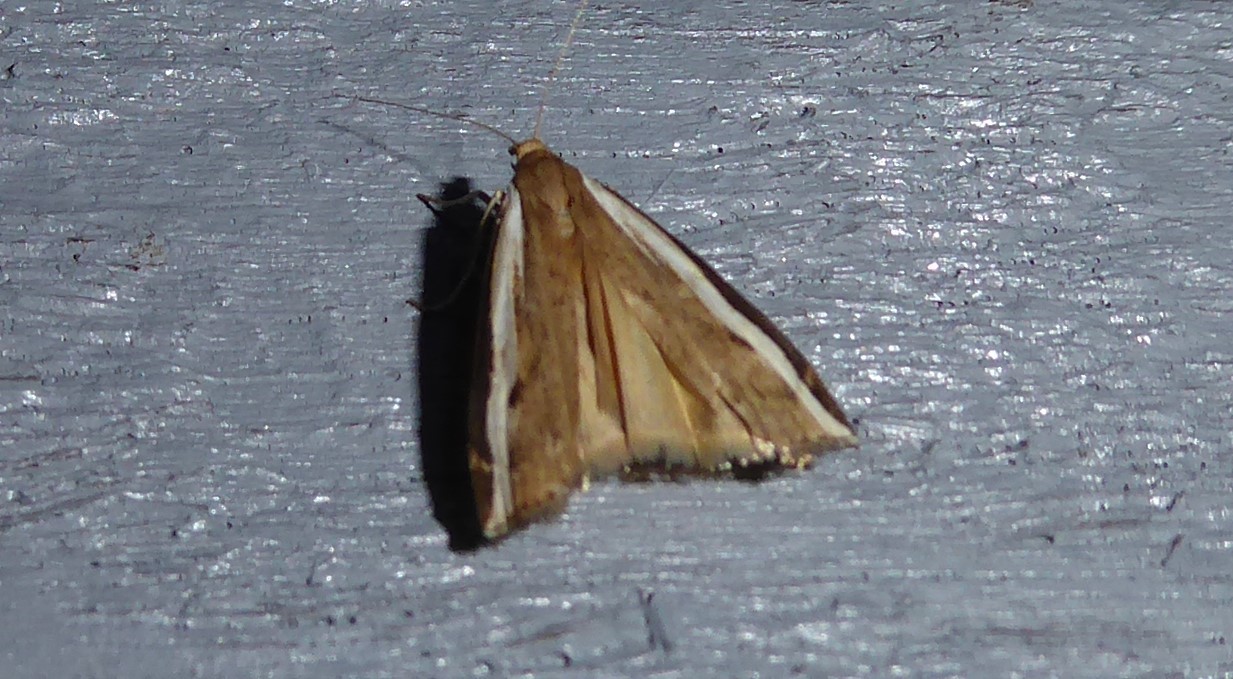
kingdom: Animalia
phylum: Arthropoda
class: Insecta
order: Lepidoptera
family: Crambidae
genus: Orocrambus
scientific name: Orocrambus flexuosellus
